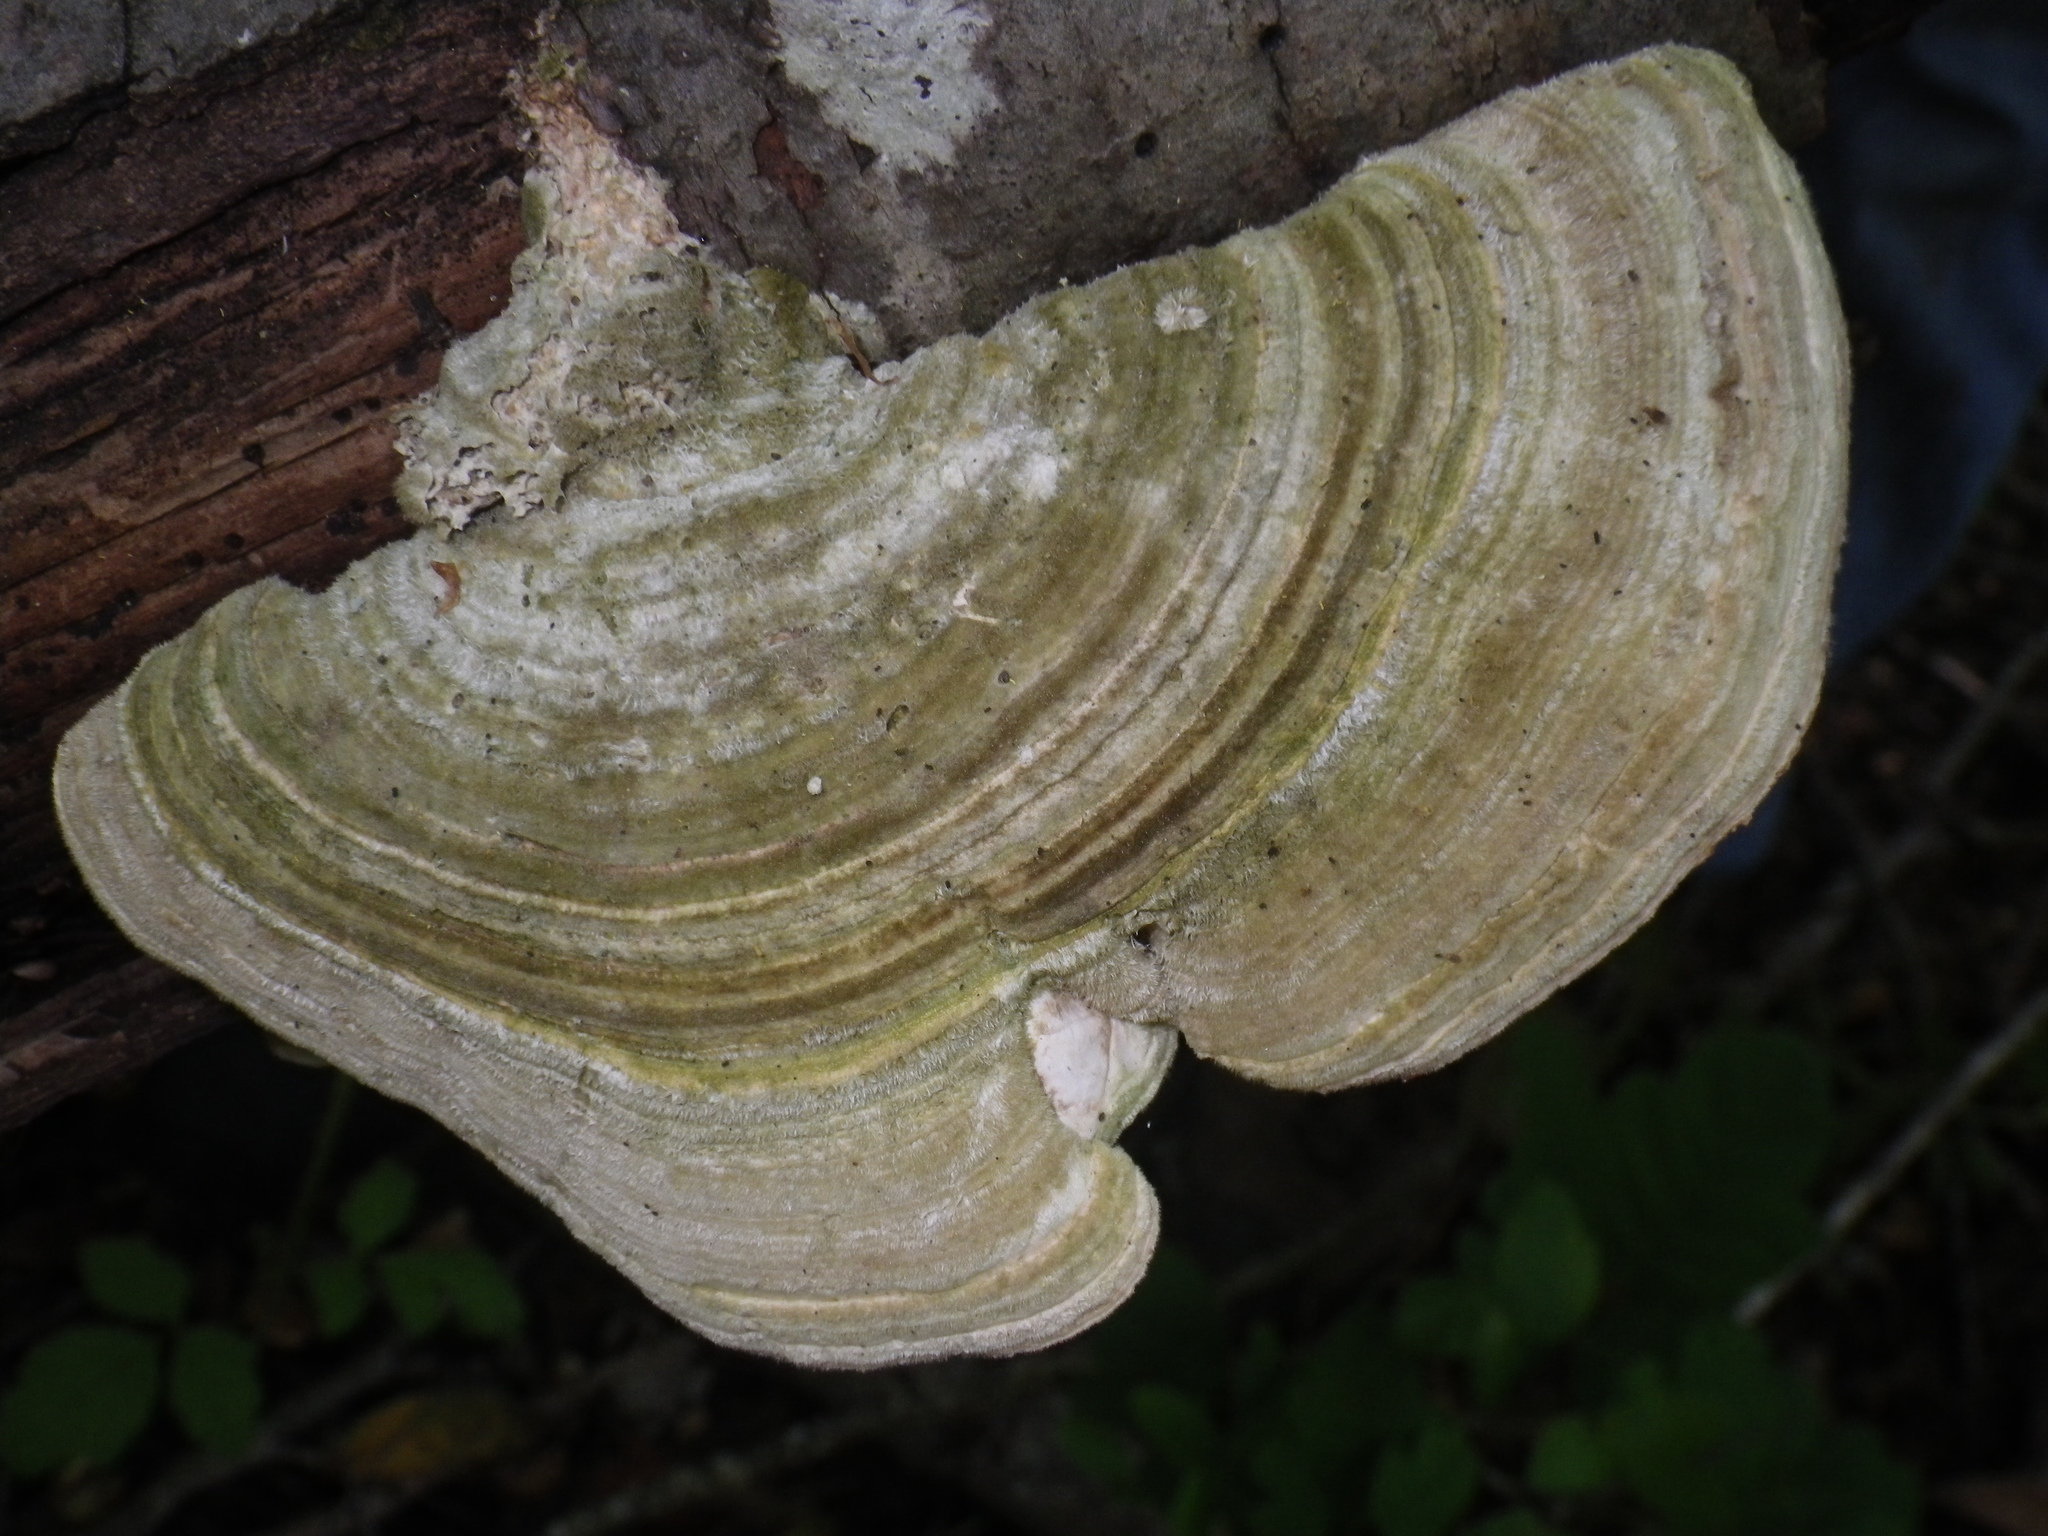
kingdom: Fungi
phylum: Basidiomycota
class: Agaricomycetes
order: Polyporales
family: Polyporaceae
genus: Lenzites
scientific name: Lenzites betulinus
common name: Birch mazegill
